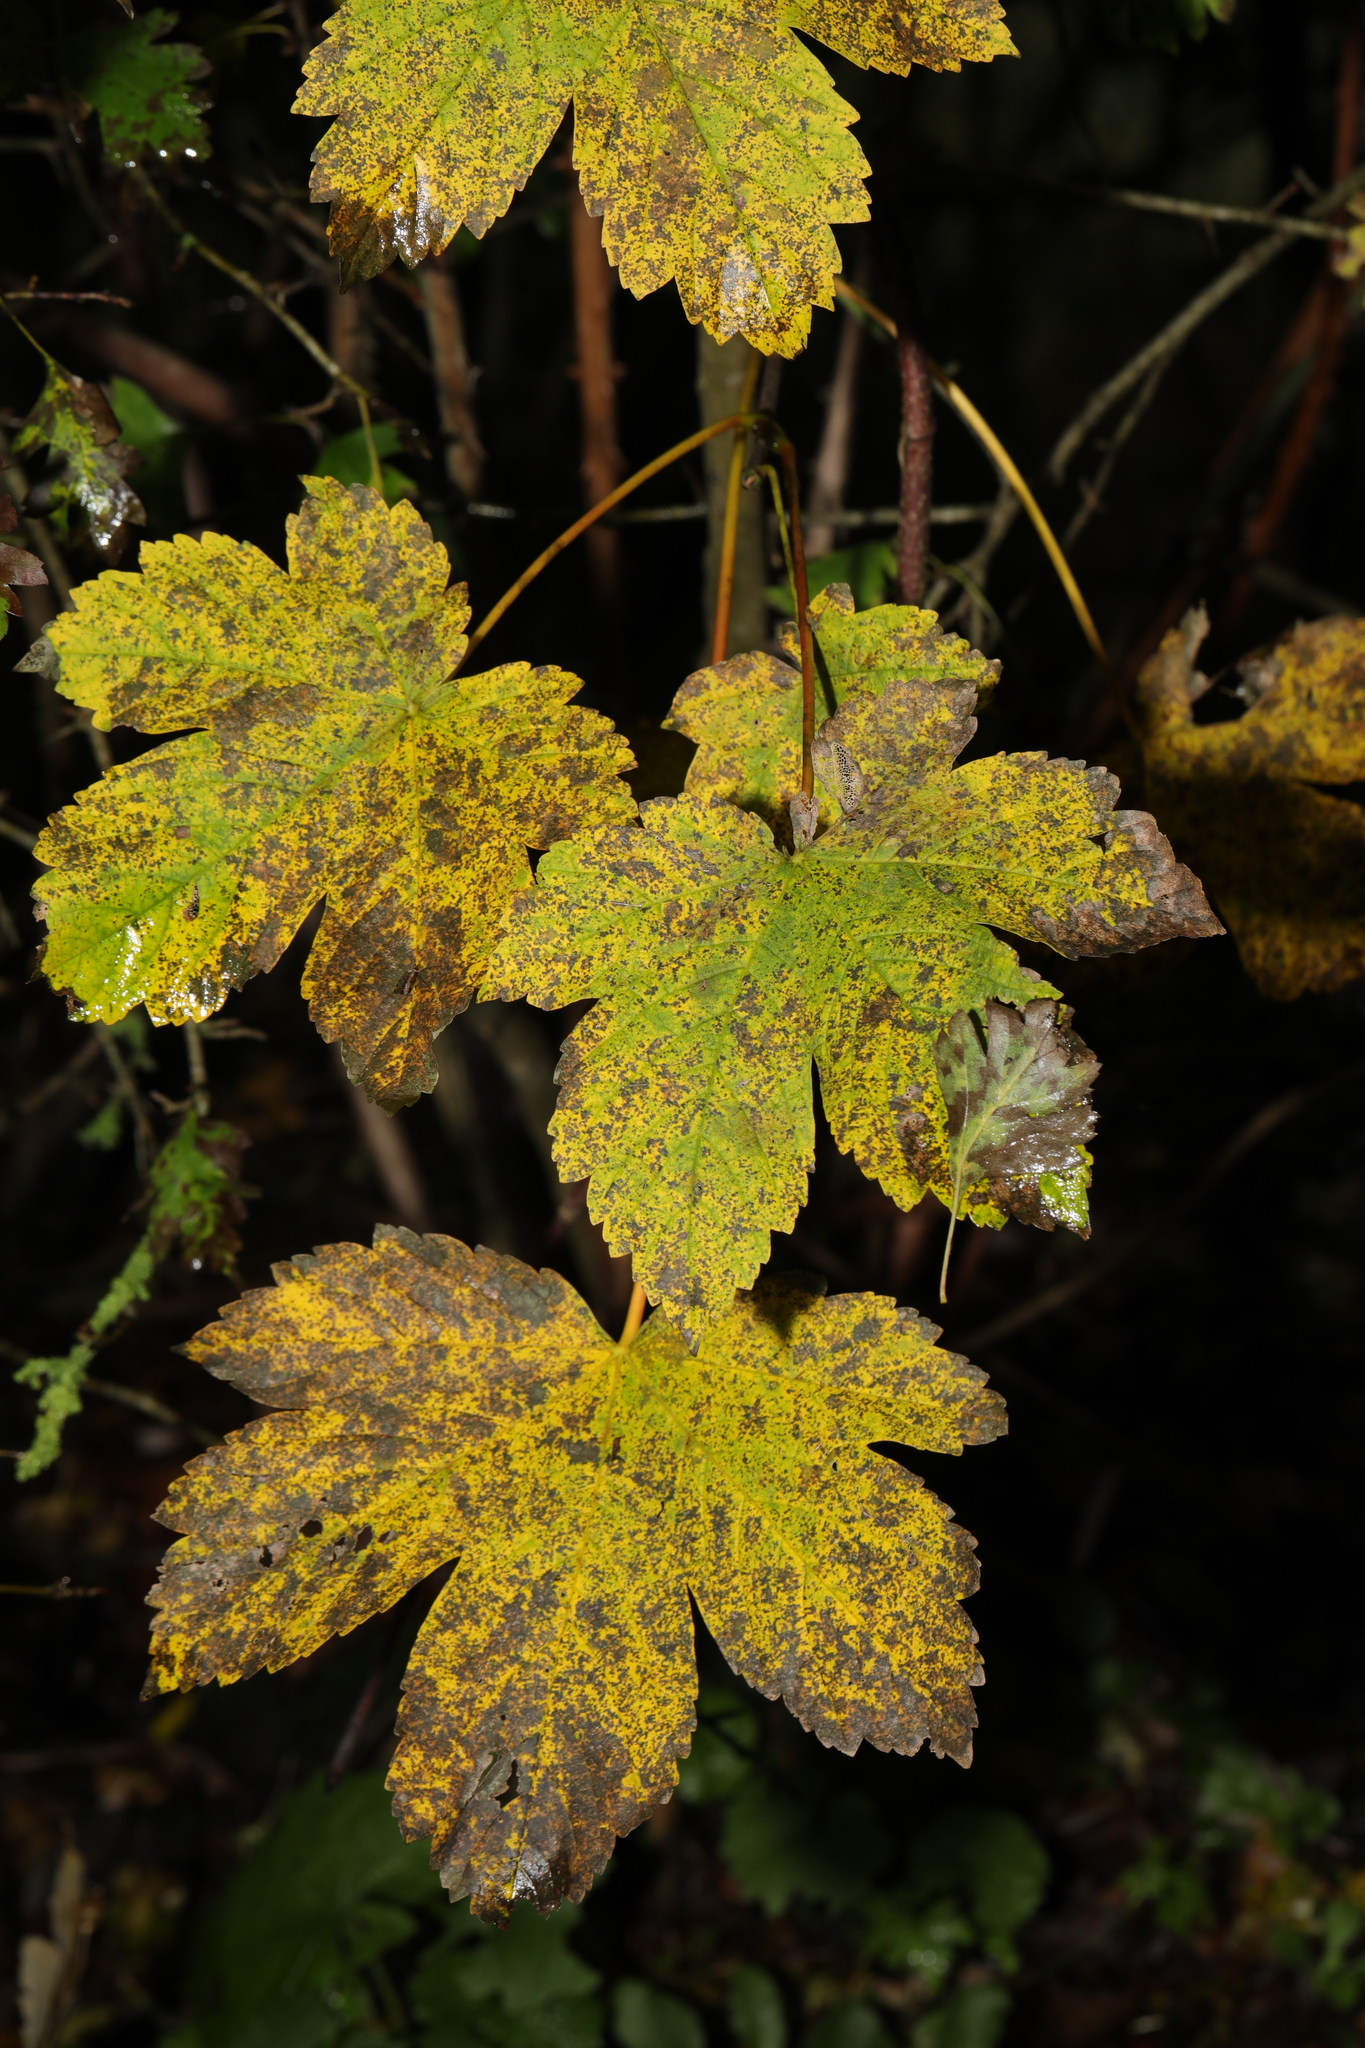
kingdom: Plantae
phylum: Tracheophyta
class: Magnoliopsida
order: Sapindales
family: Sapindaceae
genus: Acer
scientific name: Acer pseudoplatanus
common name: Sycamore
